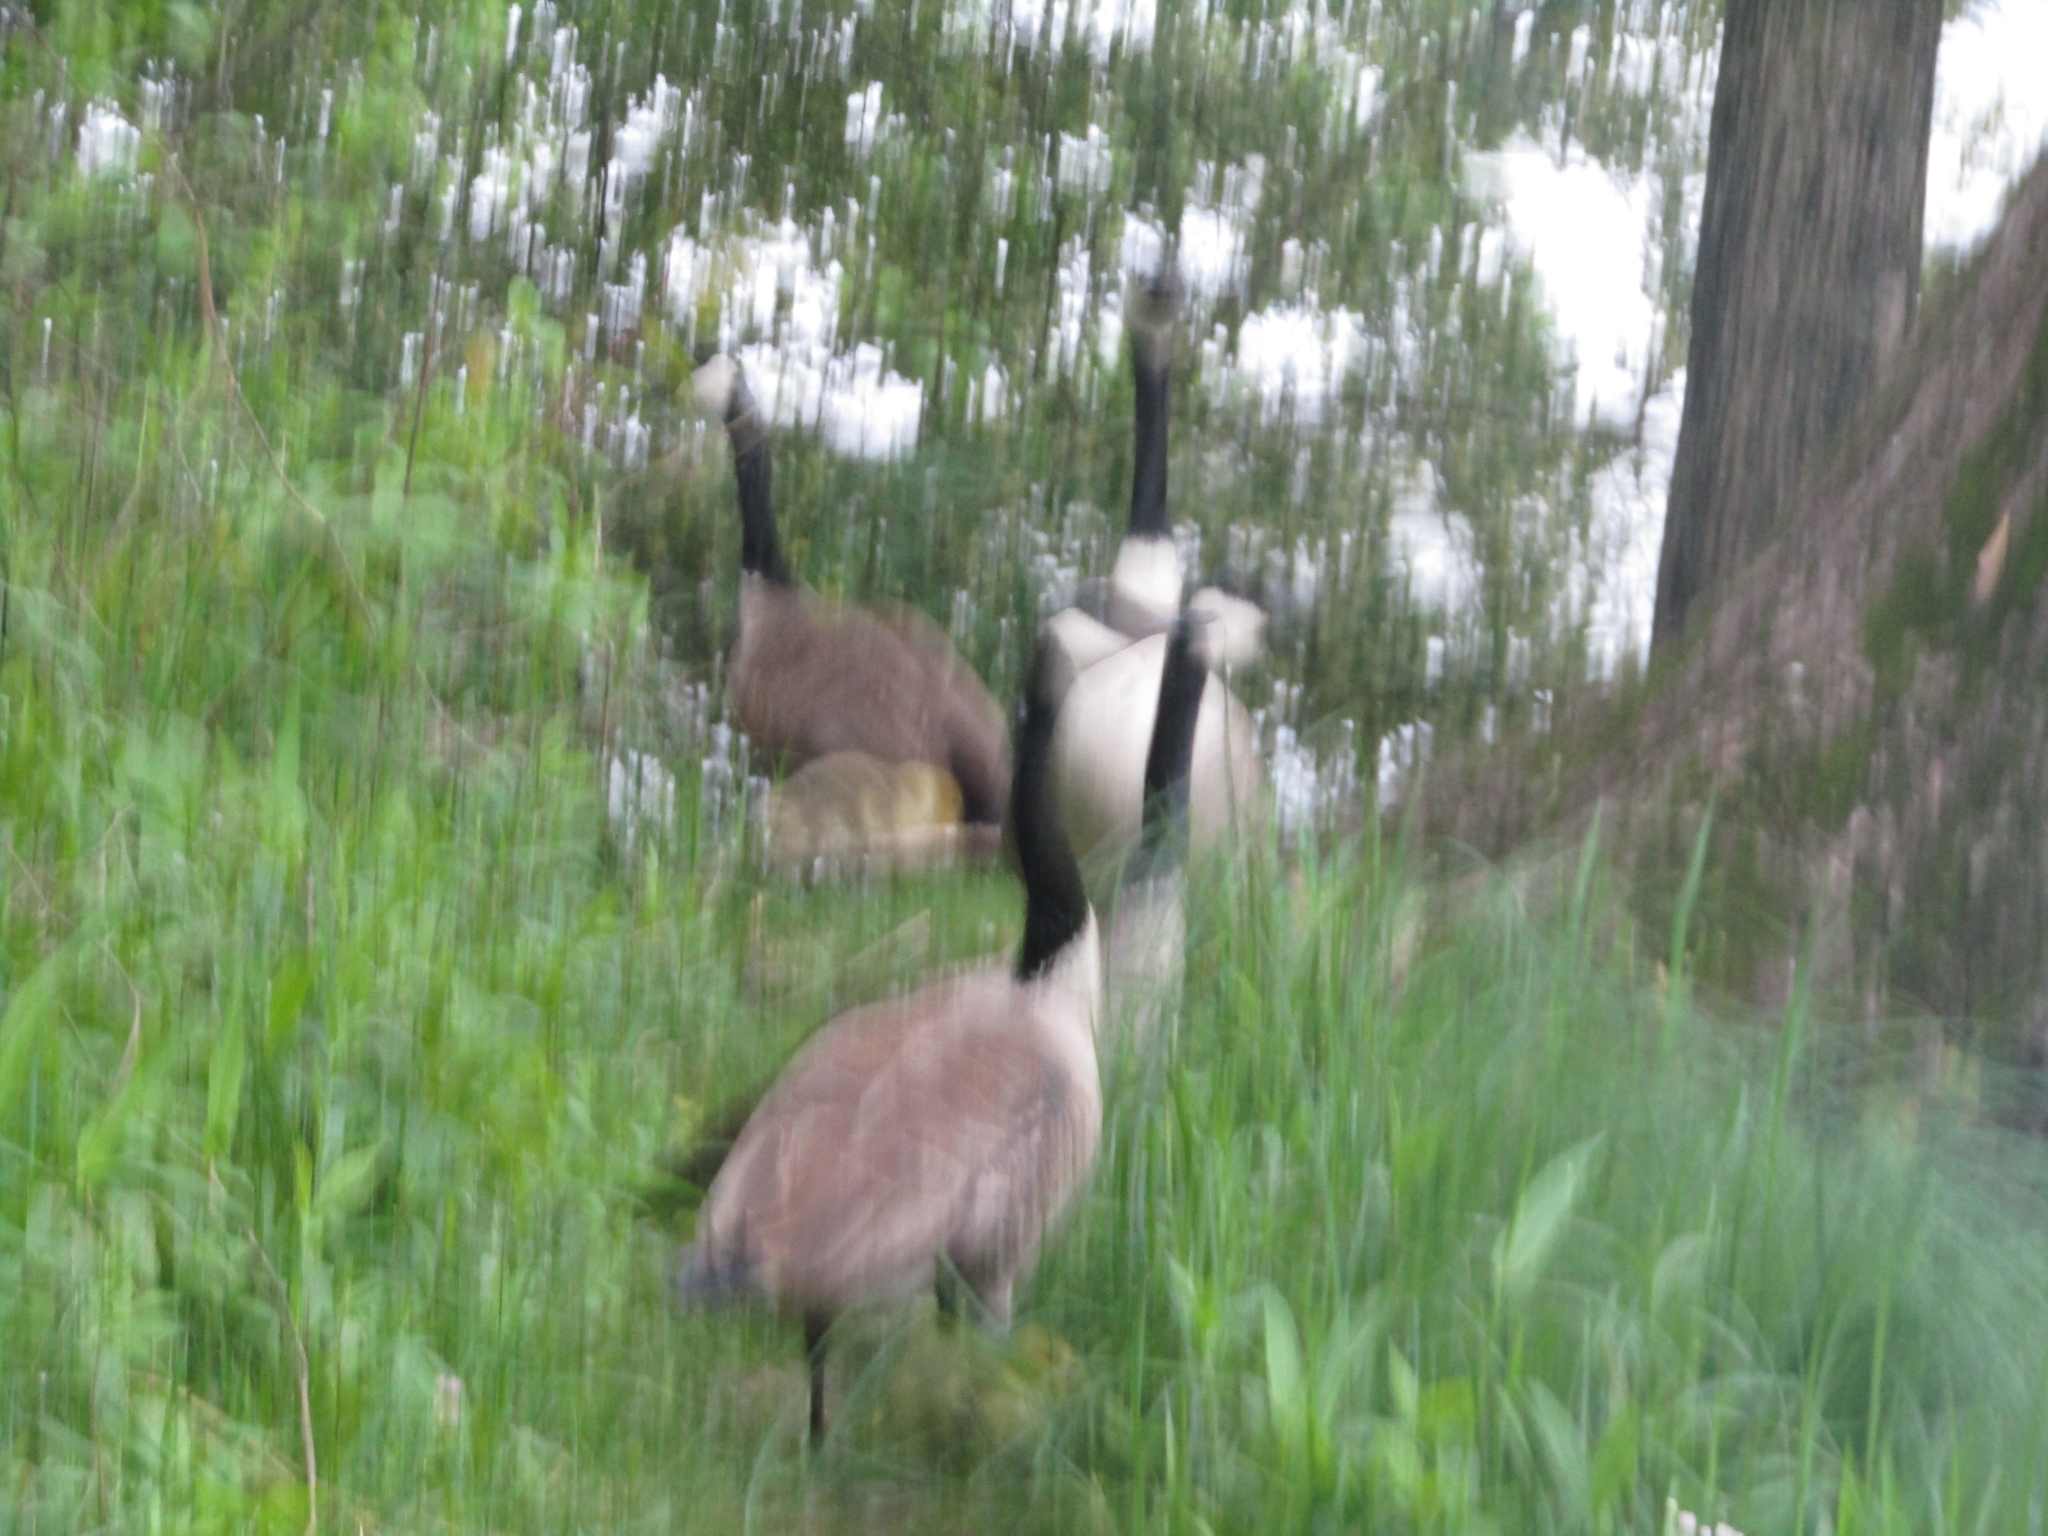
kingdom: Animalia
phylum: Chordata
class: Aves
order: Anseriformes
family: Anatidae
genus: Branta
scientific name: Branta canadensis
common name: Canada goose
